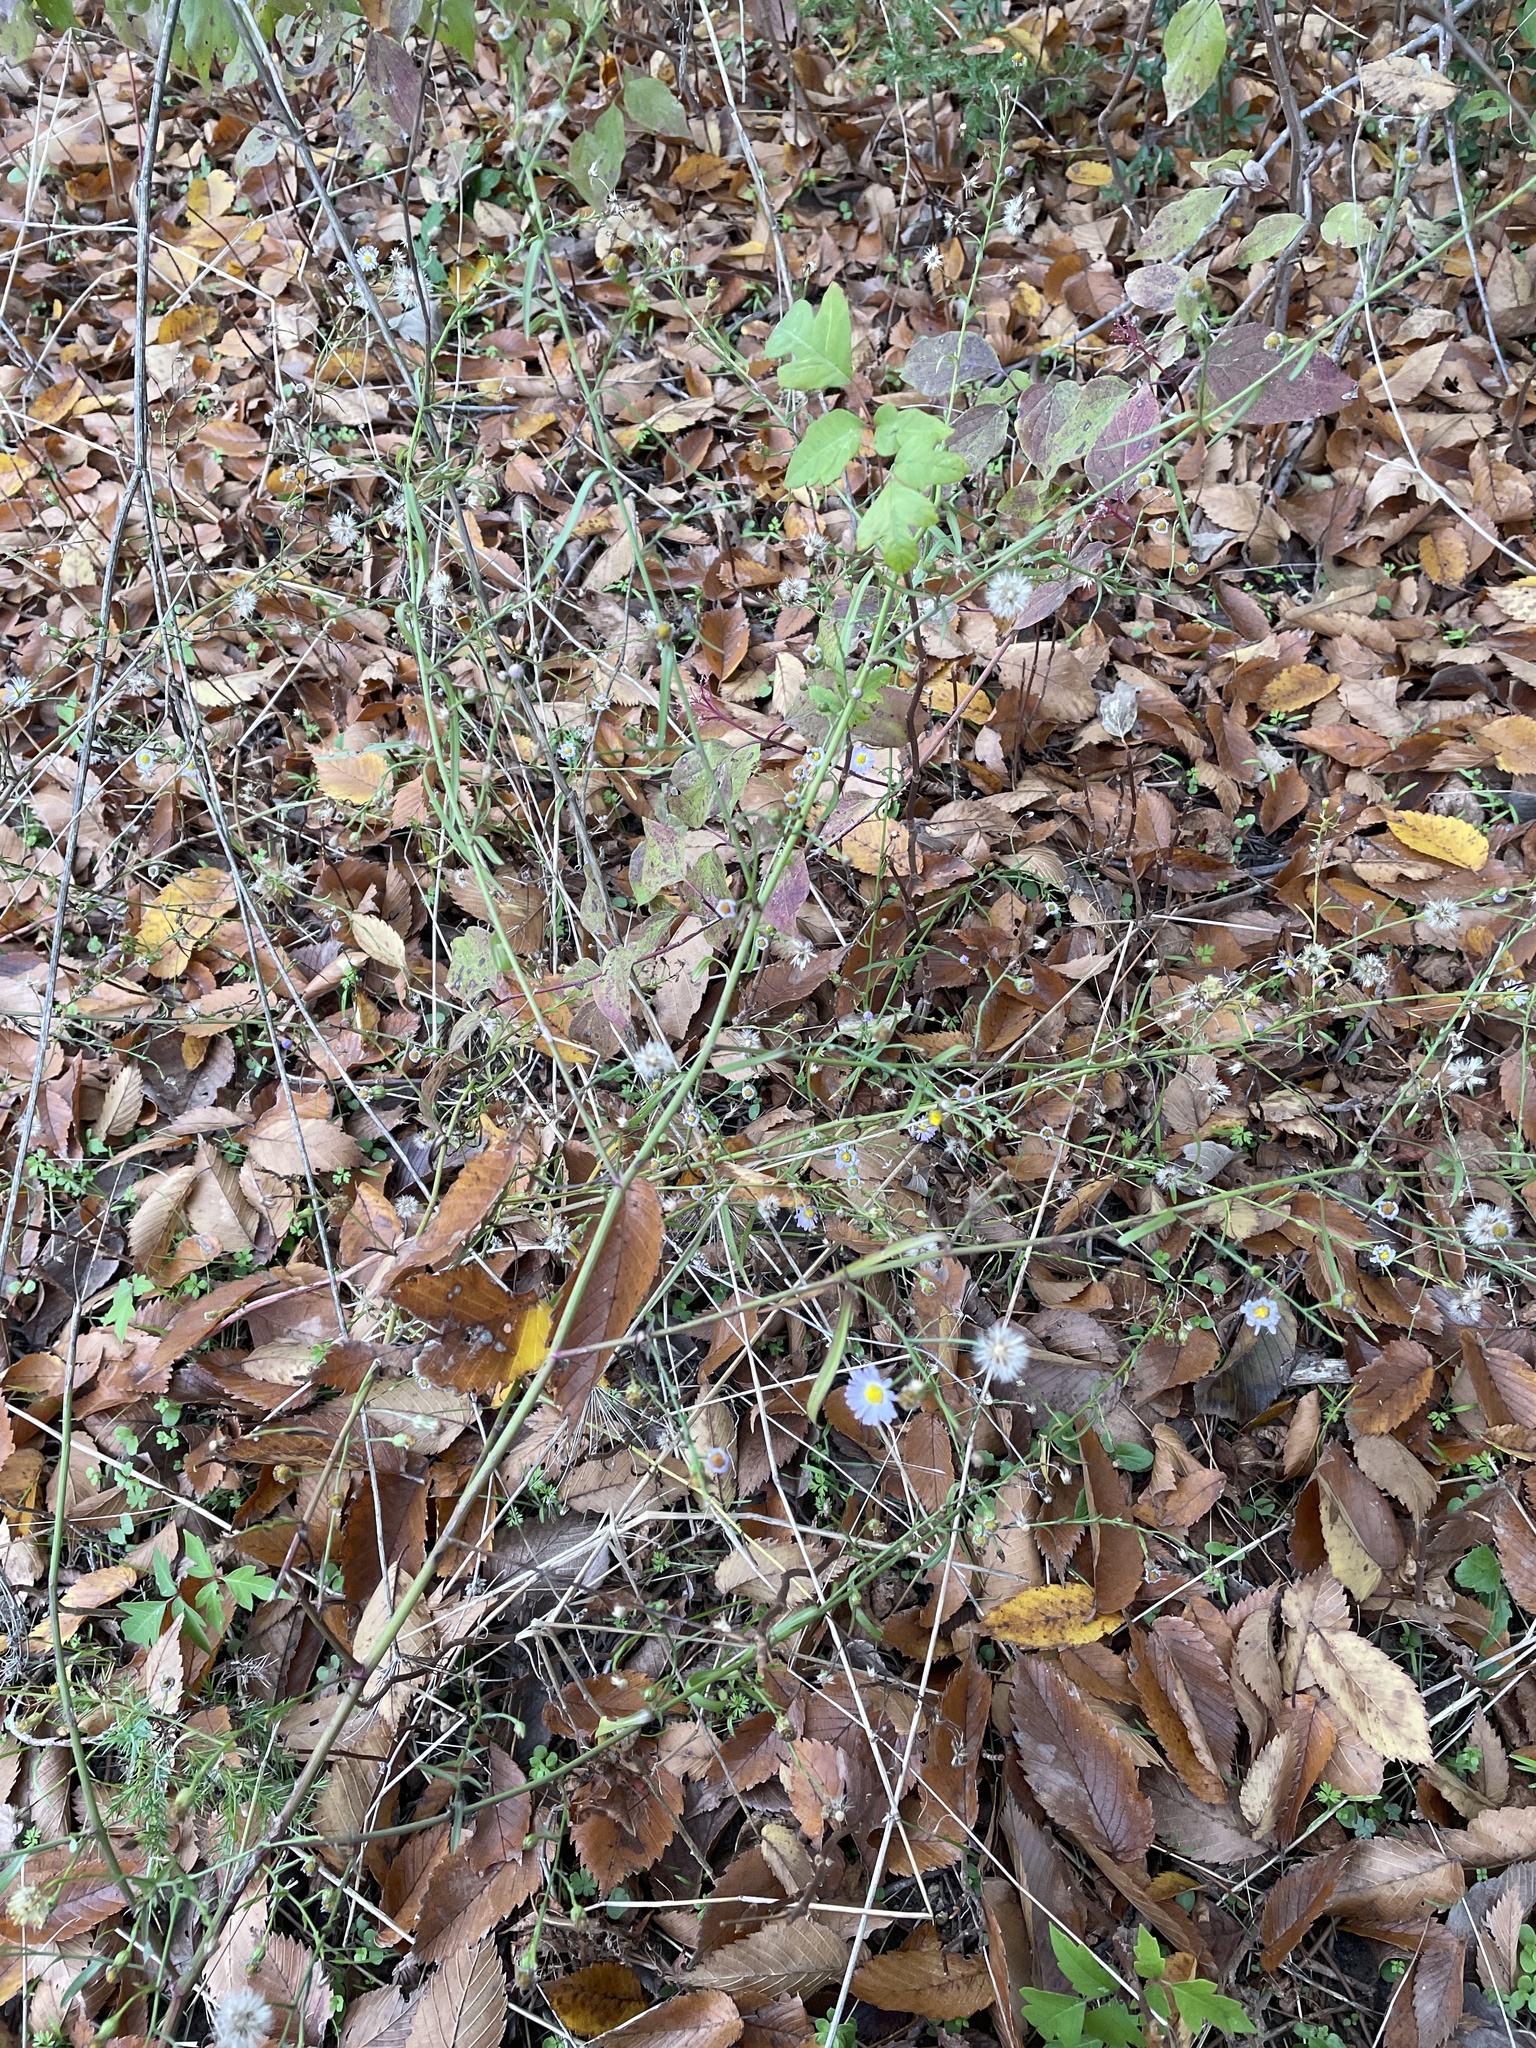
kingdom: Plantae
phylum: Tracheophyta
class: Magnoliopsida
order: Asterales
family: Asteraceae
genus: Symphyotrichum
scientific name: Symphyotrichum divaricatum
